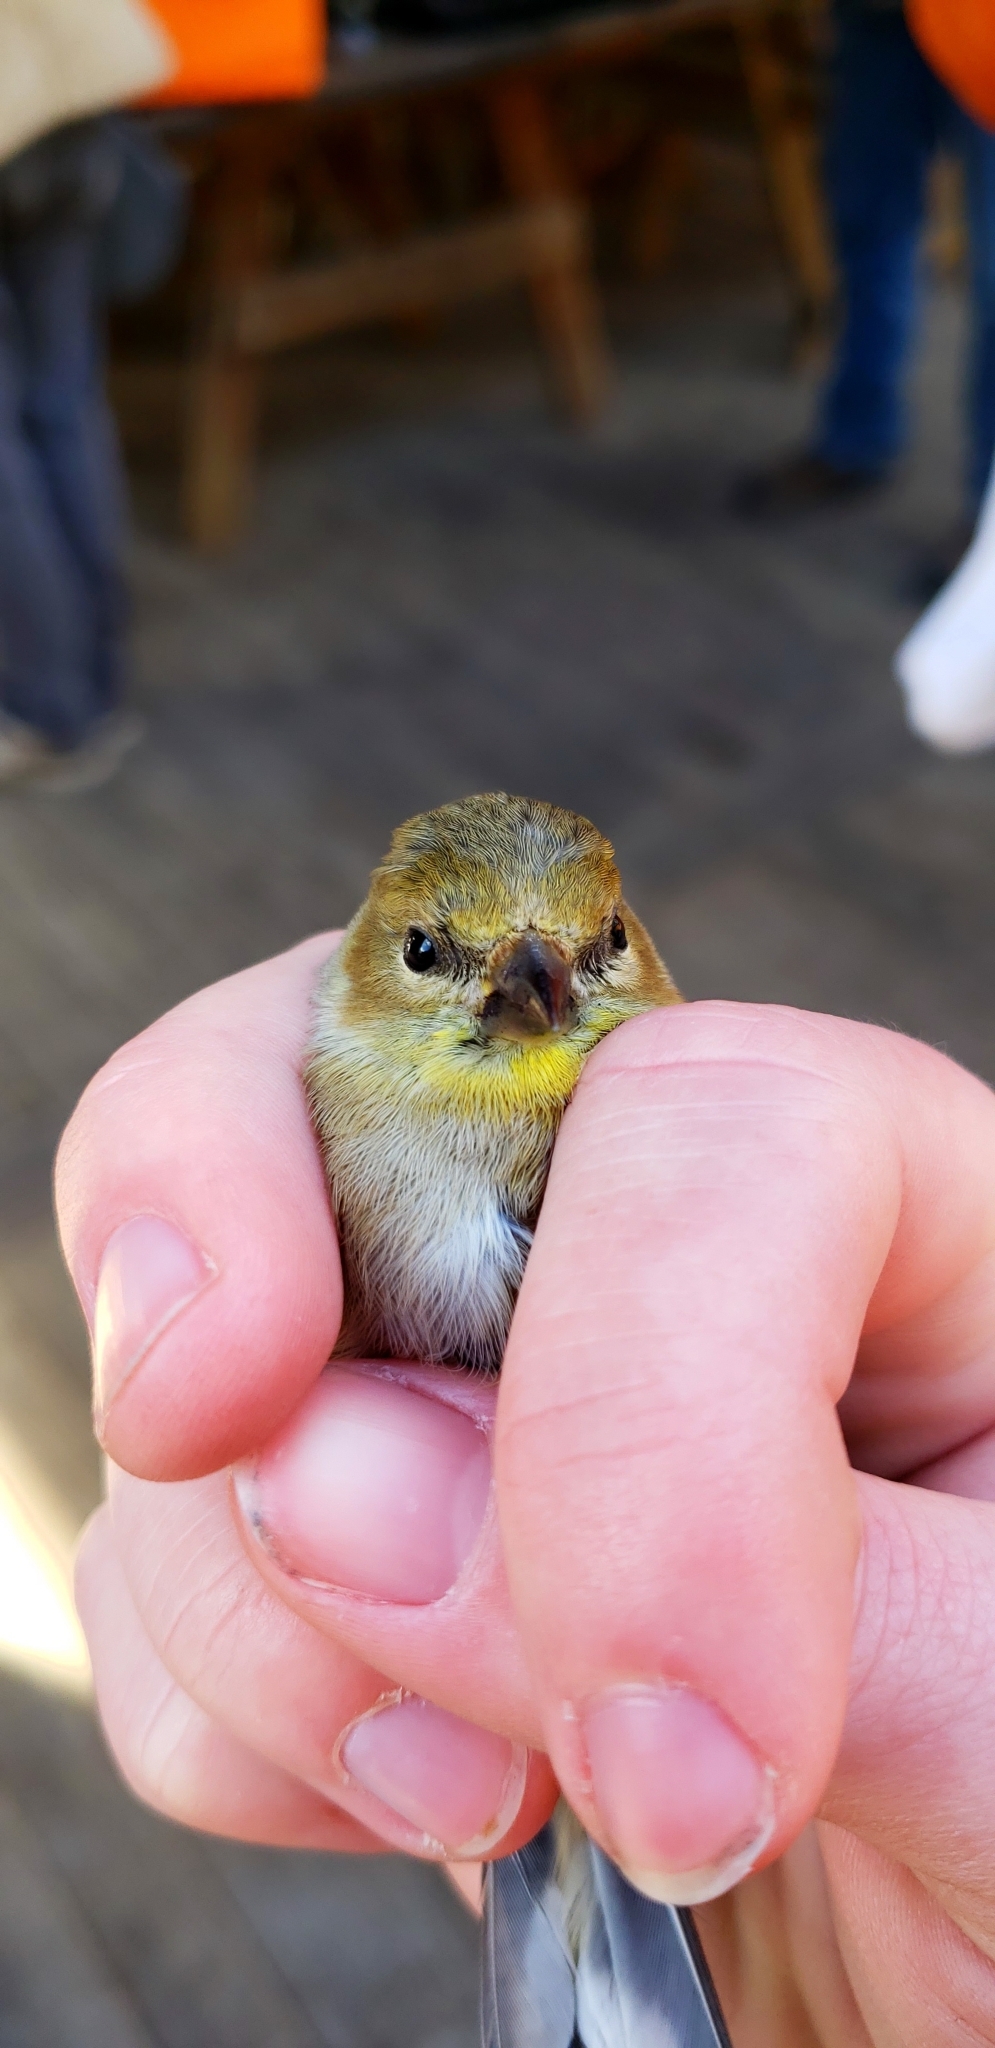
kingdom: Animalia
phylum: Chordata
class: Aves
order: Passeriformes
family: Fringillidae
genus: Spinus
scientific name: Spinus tristis
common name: American goldfinch
